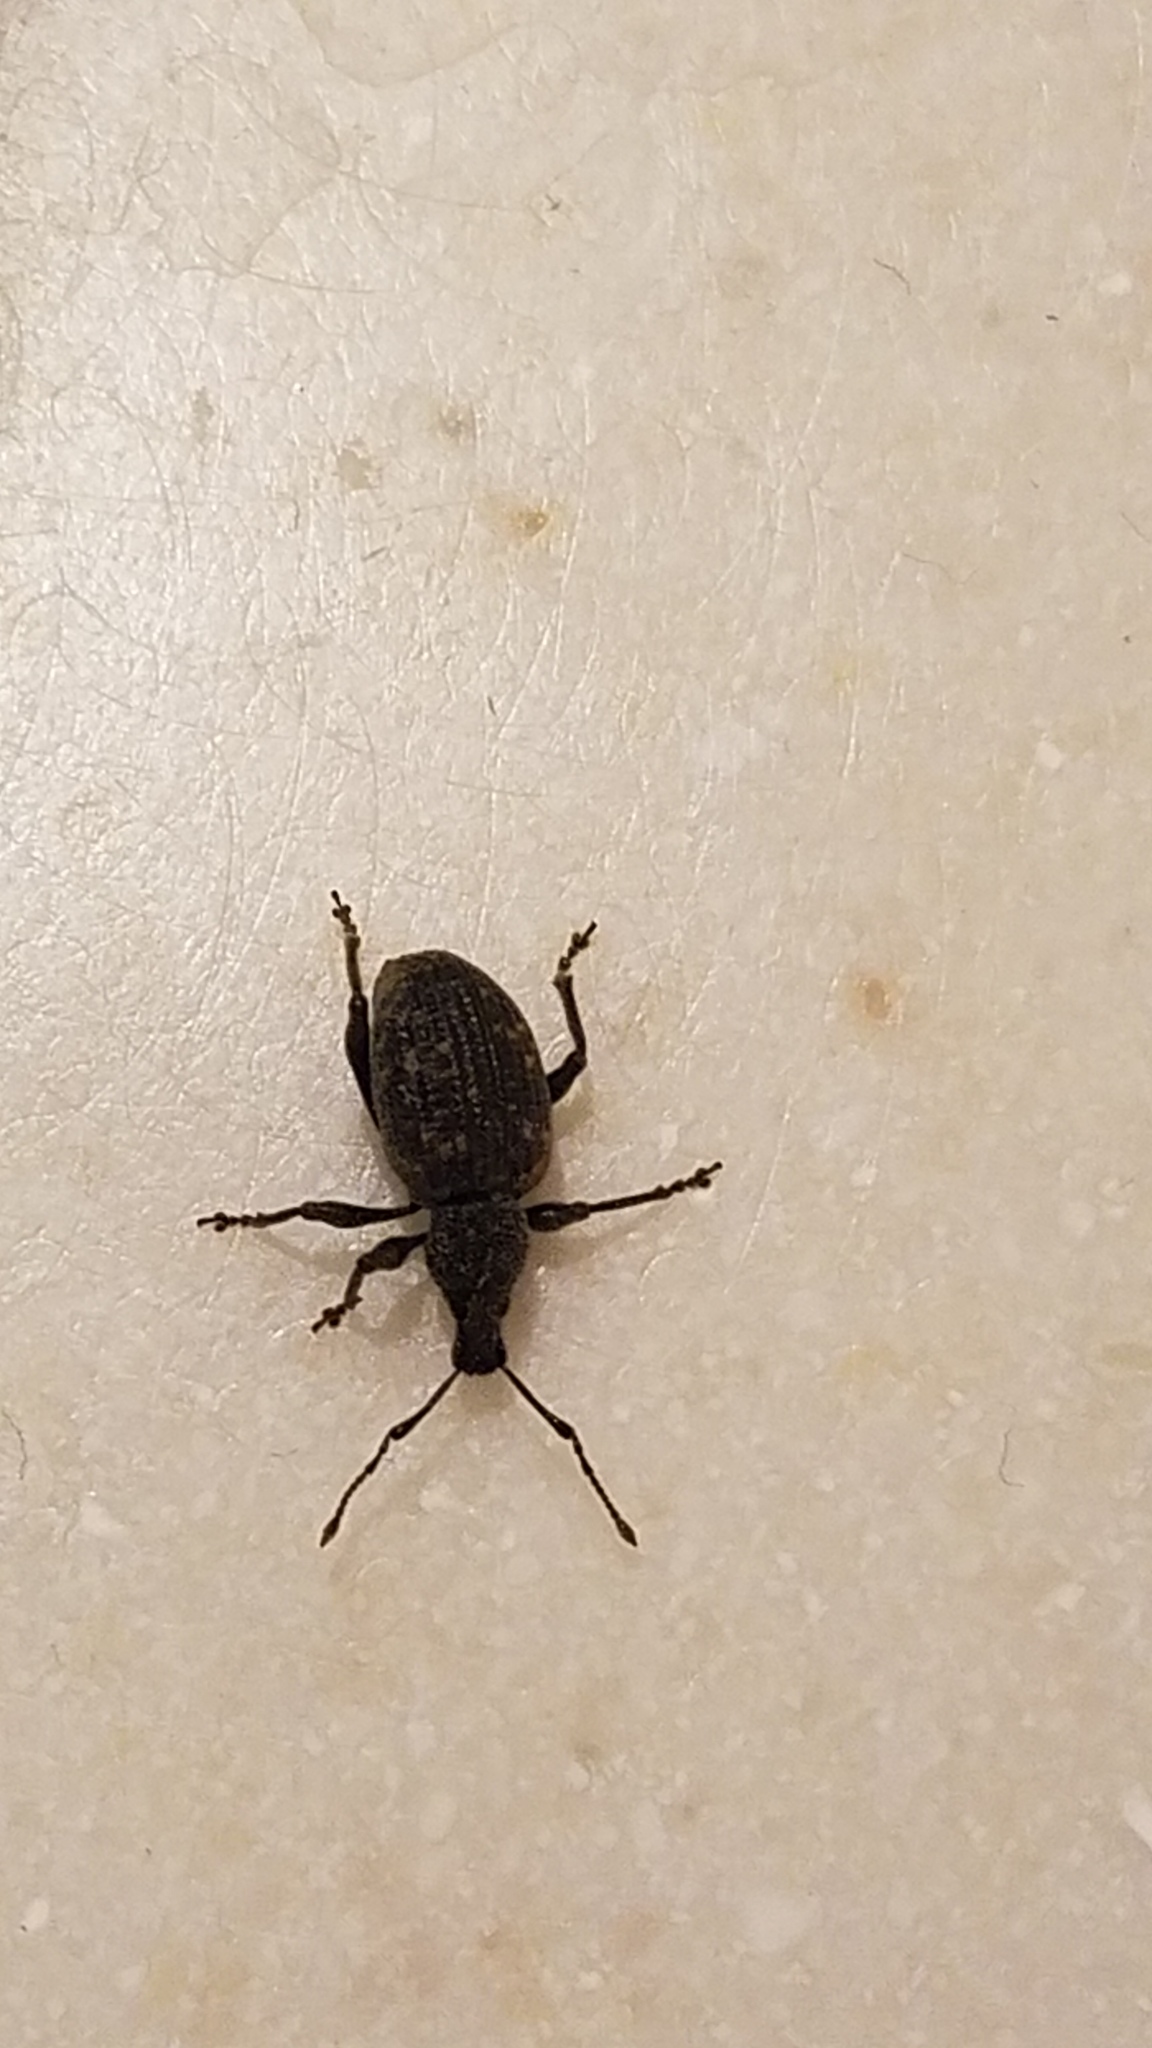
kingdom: Animalia
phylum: Arthropoda
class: Insecta
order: Coleoptera
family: Curculionidae
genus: Otiorhynchus
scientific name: Otiorhynchus sulcatus
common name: Black vine weevil
